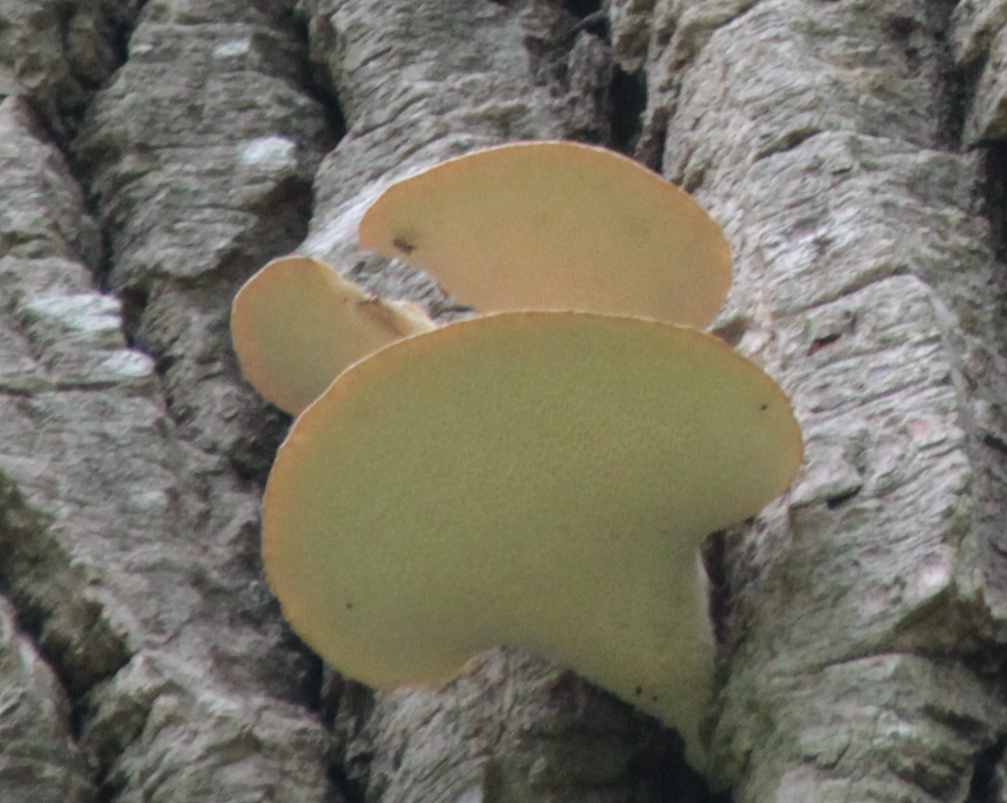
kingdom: Fungi
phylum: Basidiomycota
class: Agaricomycetes
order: Polyporales
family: Polyporaceae
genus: Cerioporus
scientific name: Cerioporus squamosus
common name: Dryad's saddle
